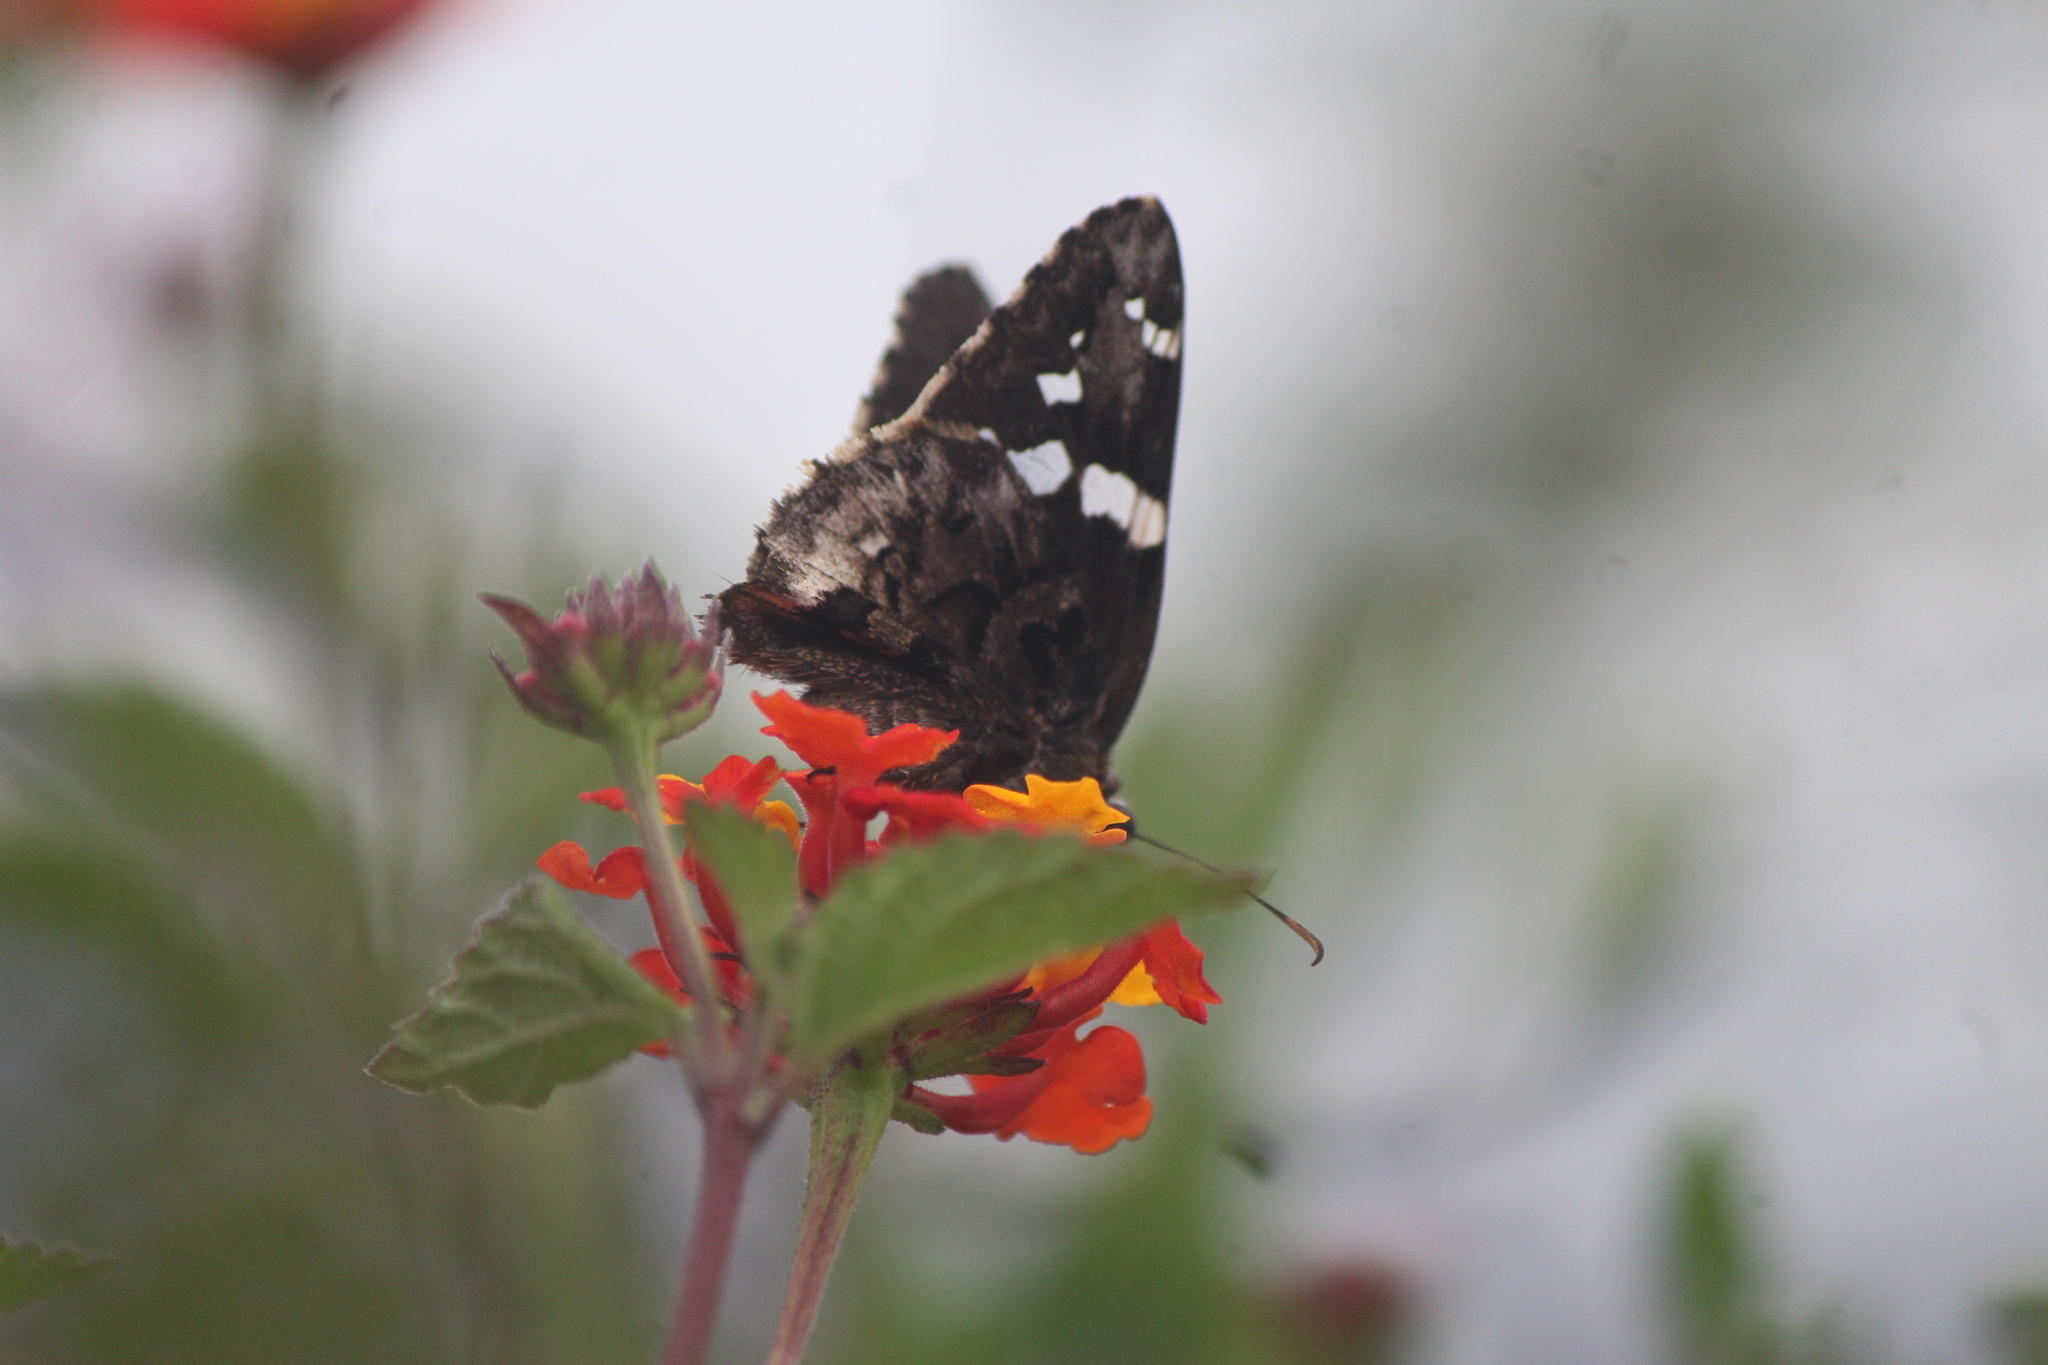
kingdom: Animalia
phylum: Arthropoda
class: Insecta
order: Lepidoptera
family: Hesperiidae
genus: Codatractus
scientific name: Codatractus arizonensis
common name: Arizona skipper
